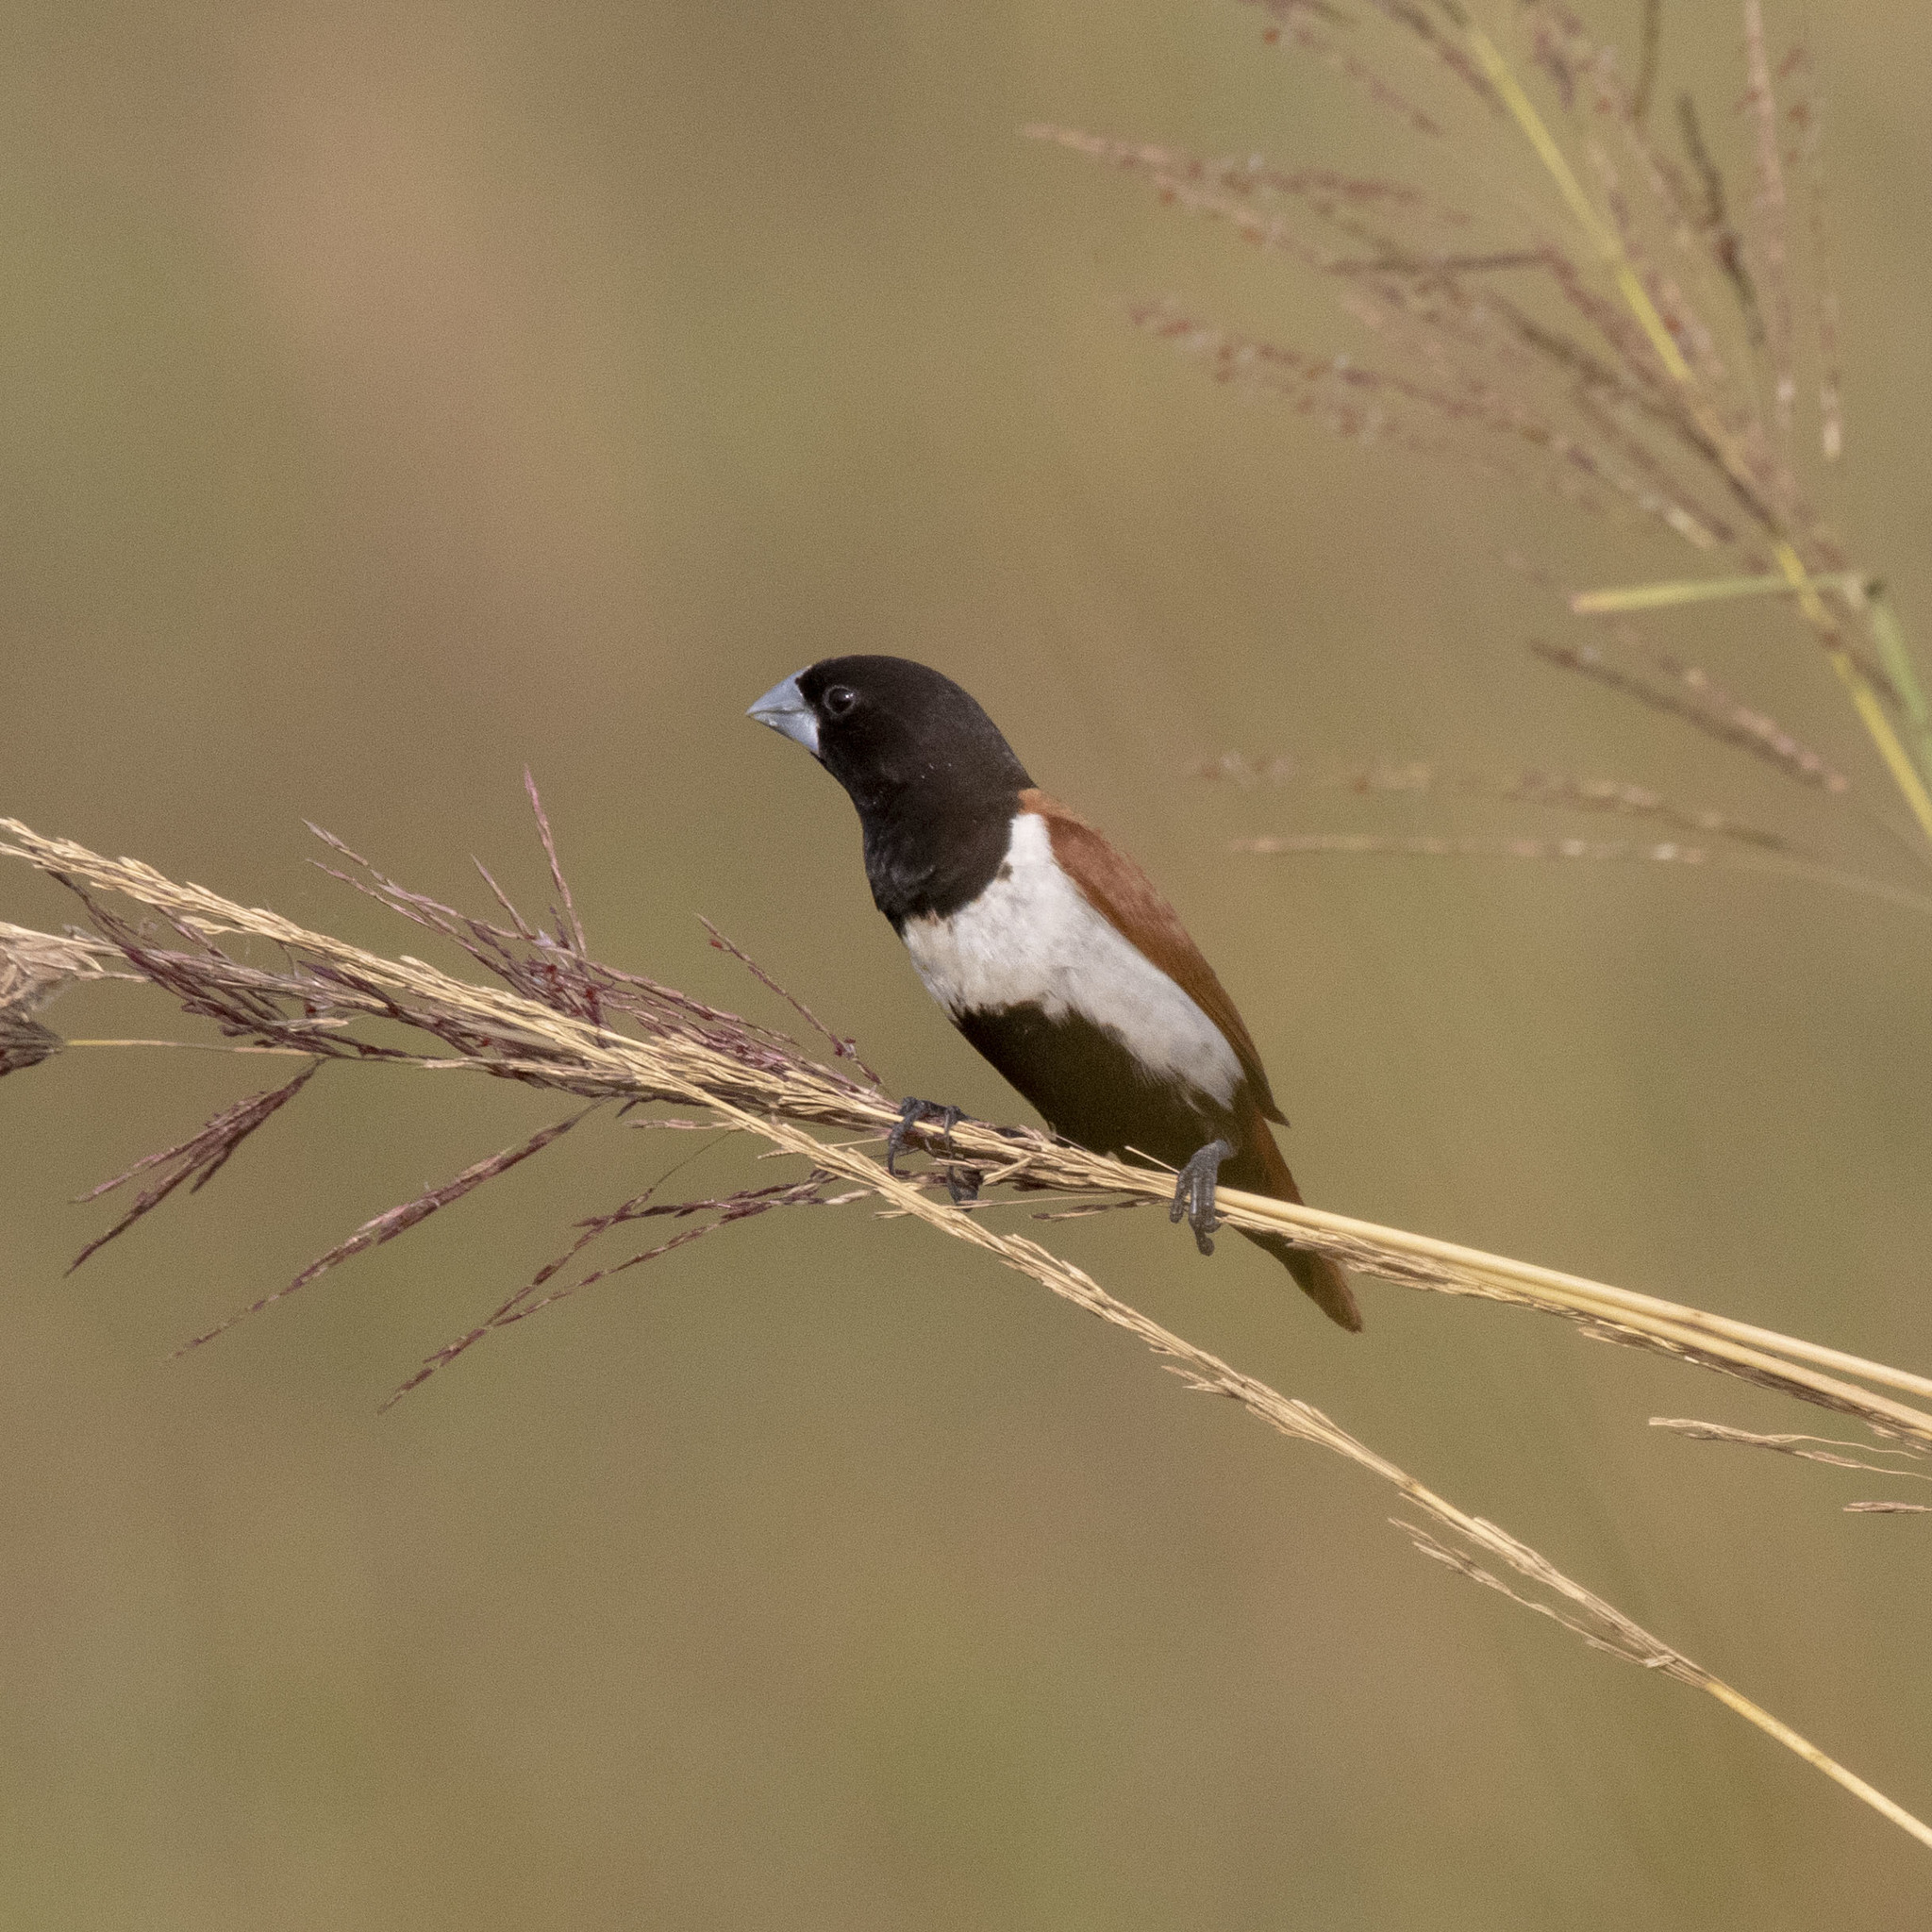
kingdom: Animalia
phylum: Chordata
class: Aves
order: Passeriformes
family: Estrildidae
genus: Lonchura
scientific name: Lonchura malacca
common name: Tricolored munia
